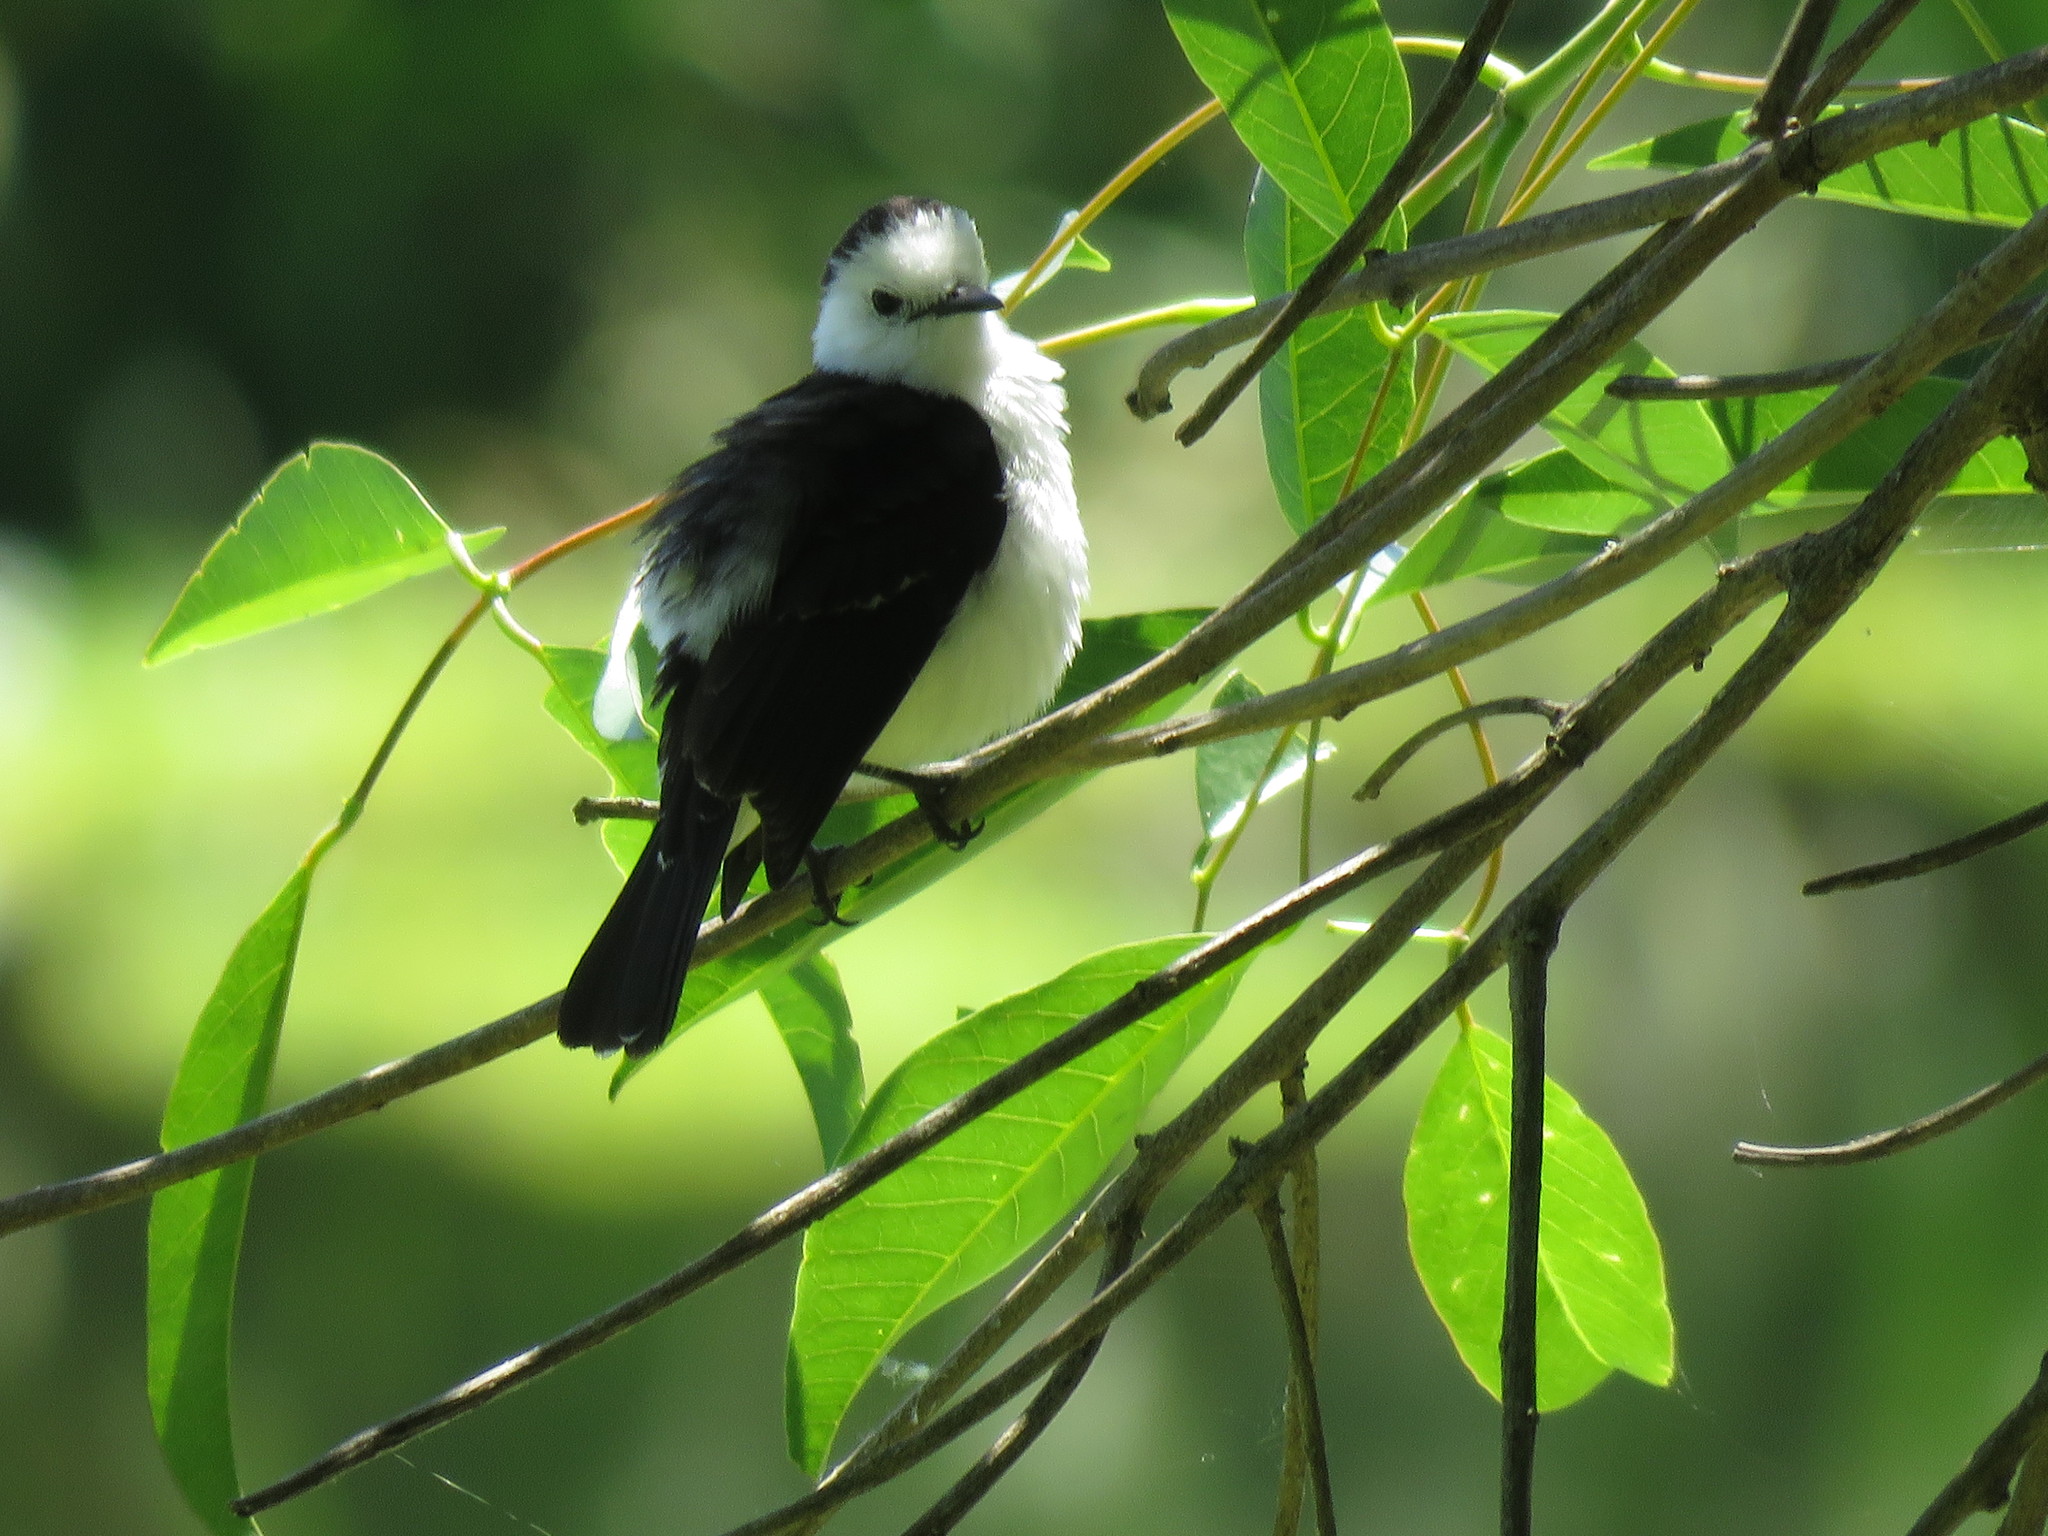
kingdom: Animalia
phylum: Chordata
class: Aves
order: Passeriformes
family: Tyrannidae
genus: Fluvicola
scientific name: Fluvicola pica
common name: Pied water-tyrant
